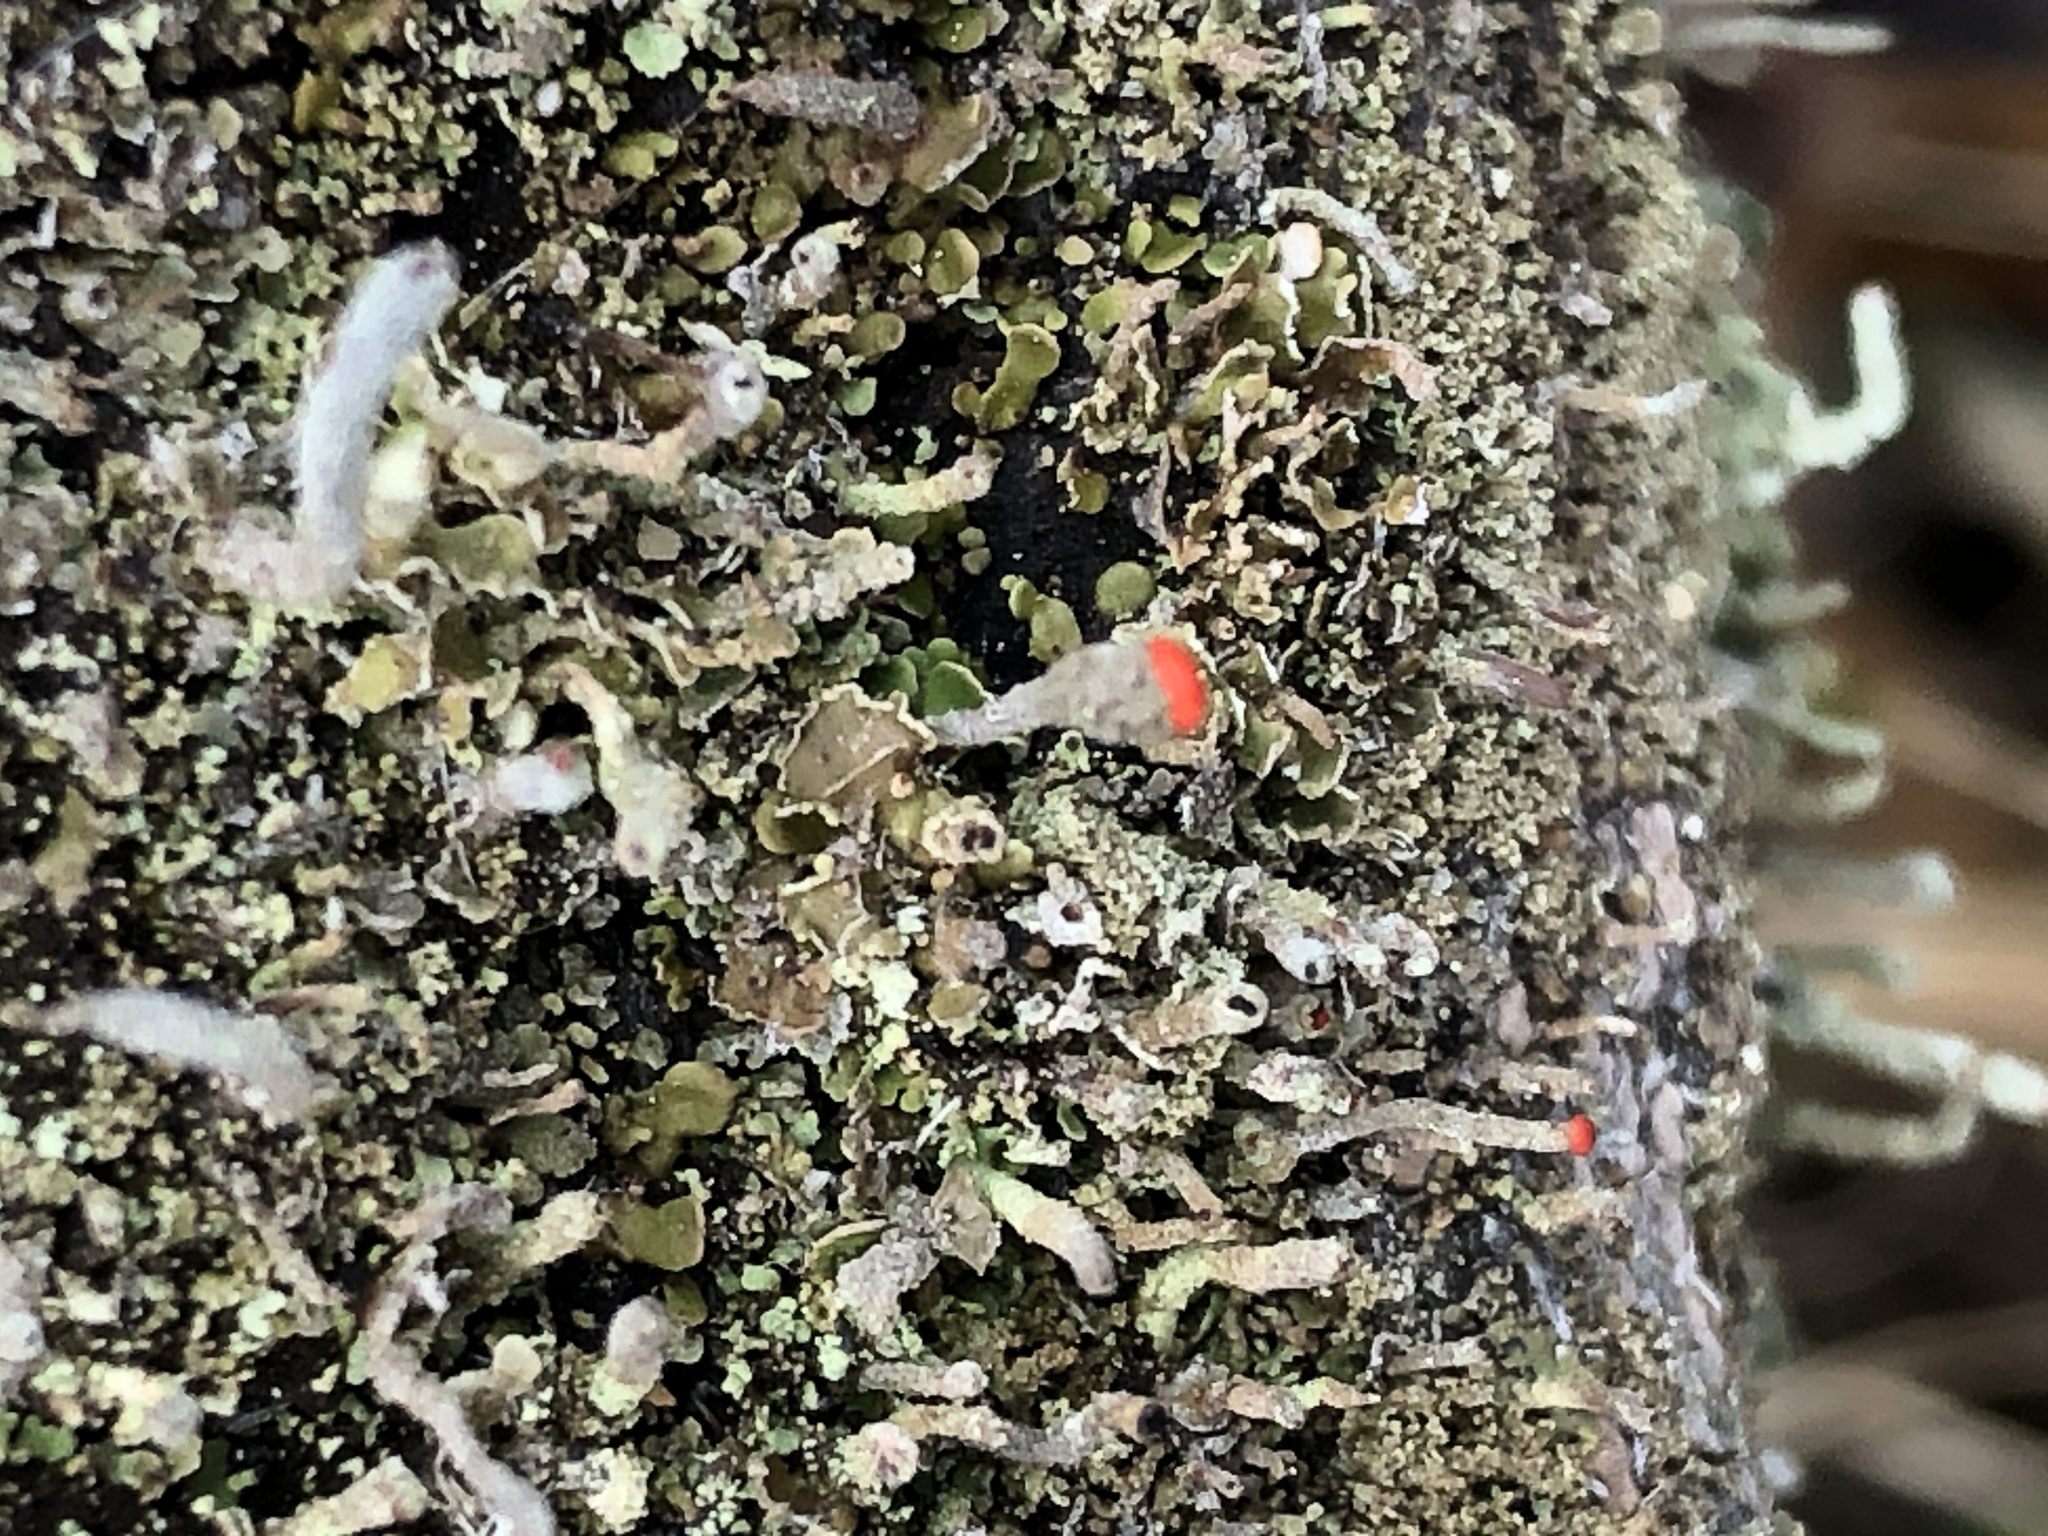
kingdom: Fungi
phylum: Ascomycota
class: Lecanoromycetes
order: Lecanorales
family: Cladoniaceae
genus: Cladonia
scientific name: Cladonia cristatella
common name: British soldier lichen
